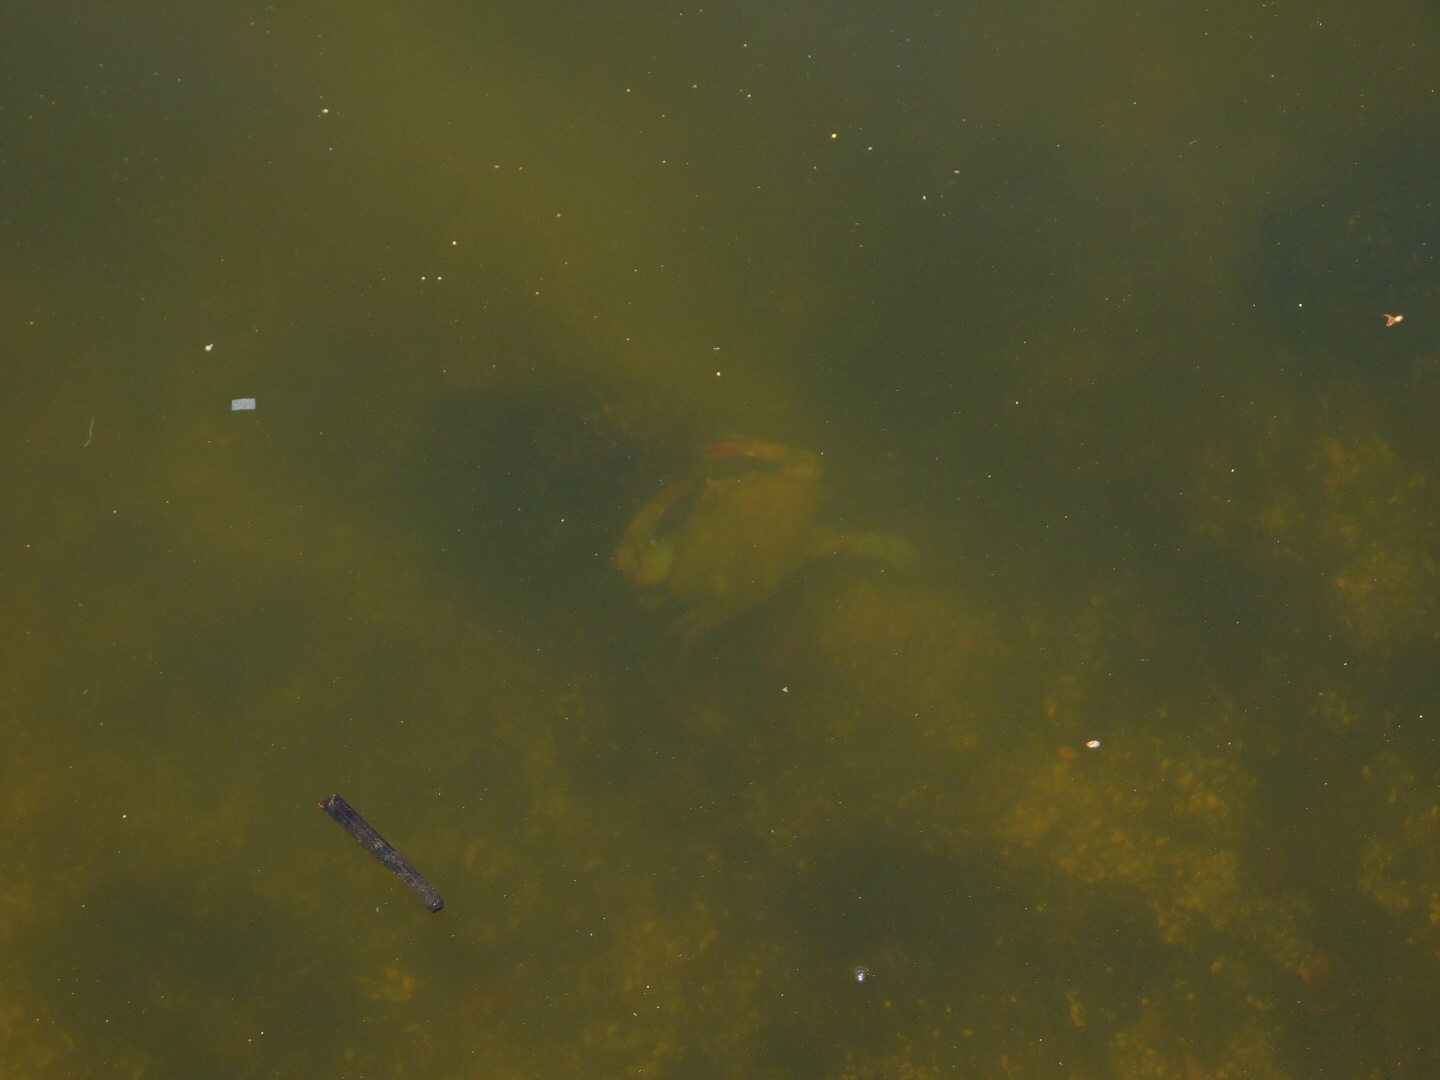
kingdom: Animalia
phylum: Arthropoda
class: Malacostraca
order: Decapoda
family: Portunidae
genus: Callinectes
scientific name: Callinectes sapidus
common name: Blue crab
